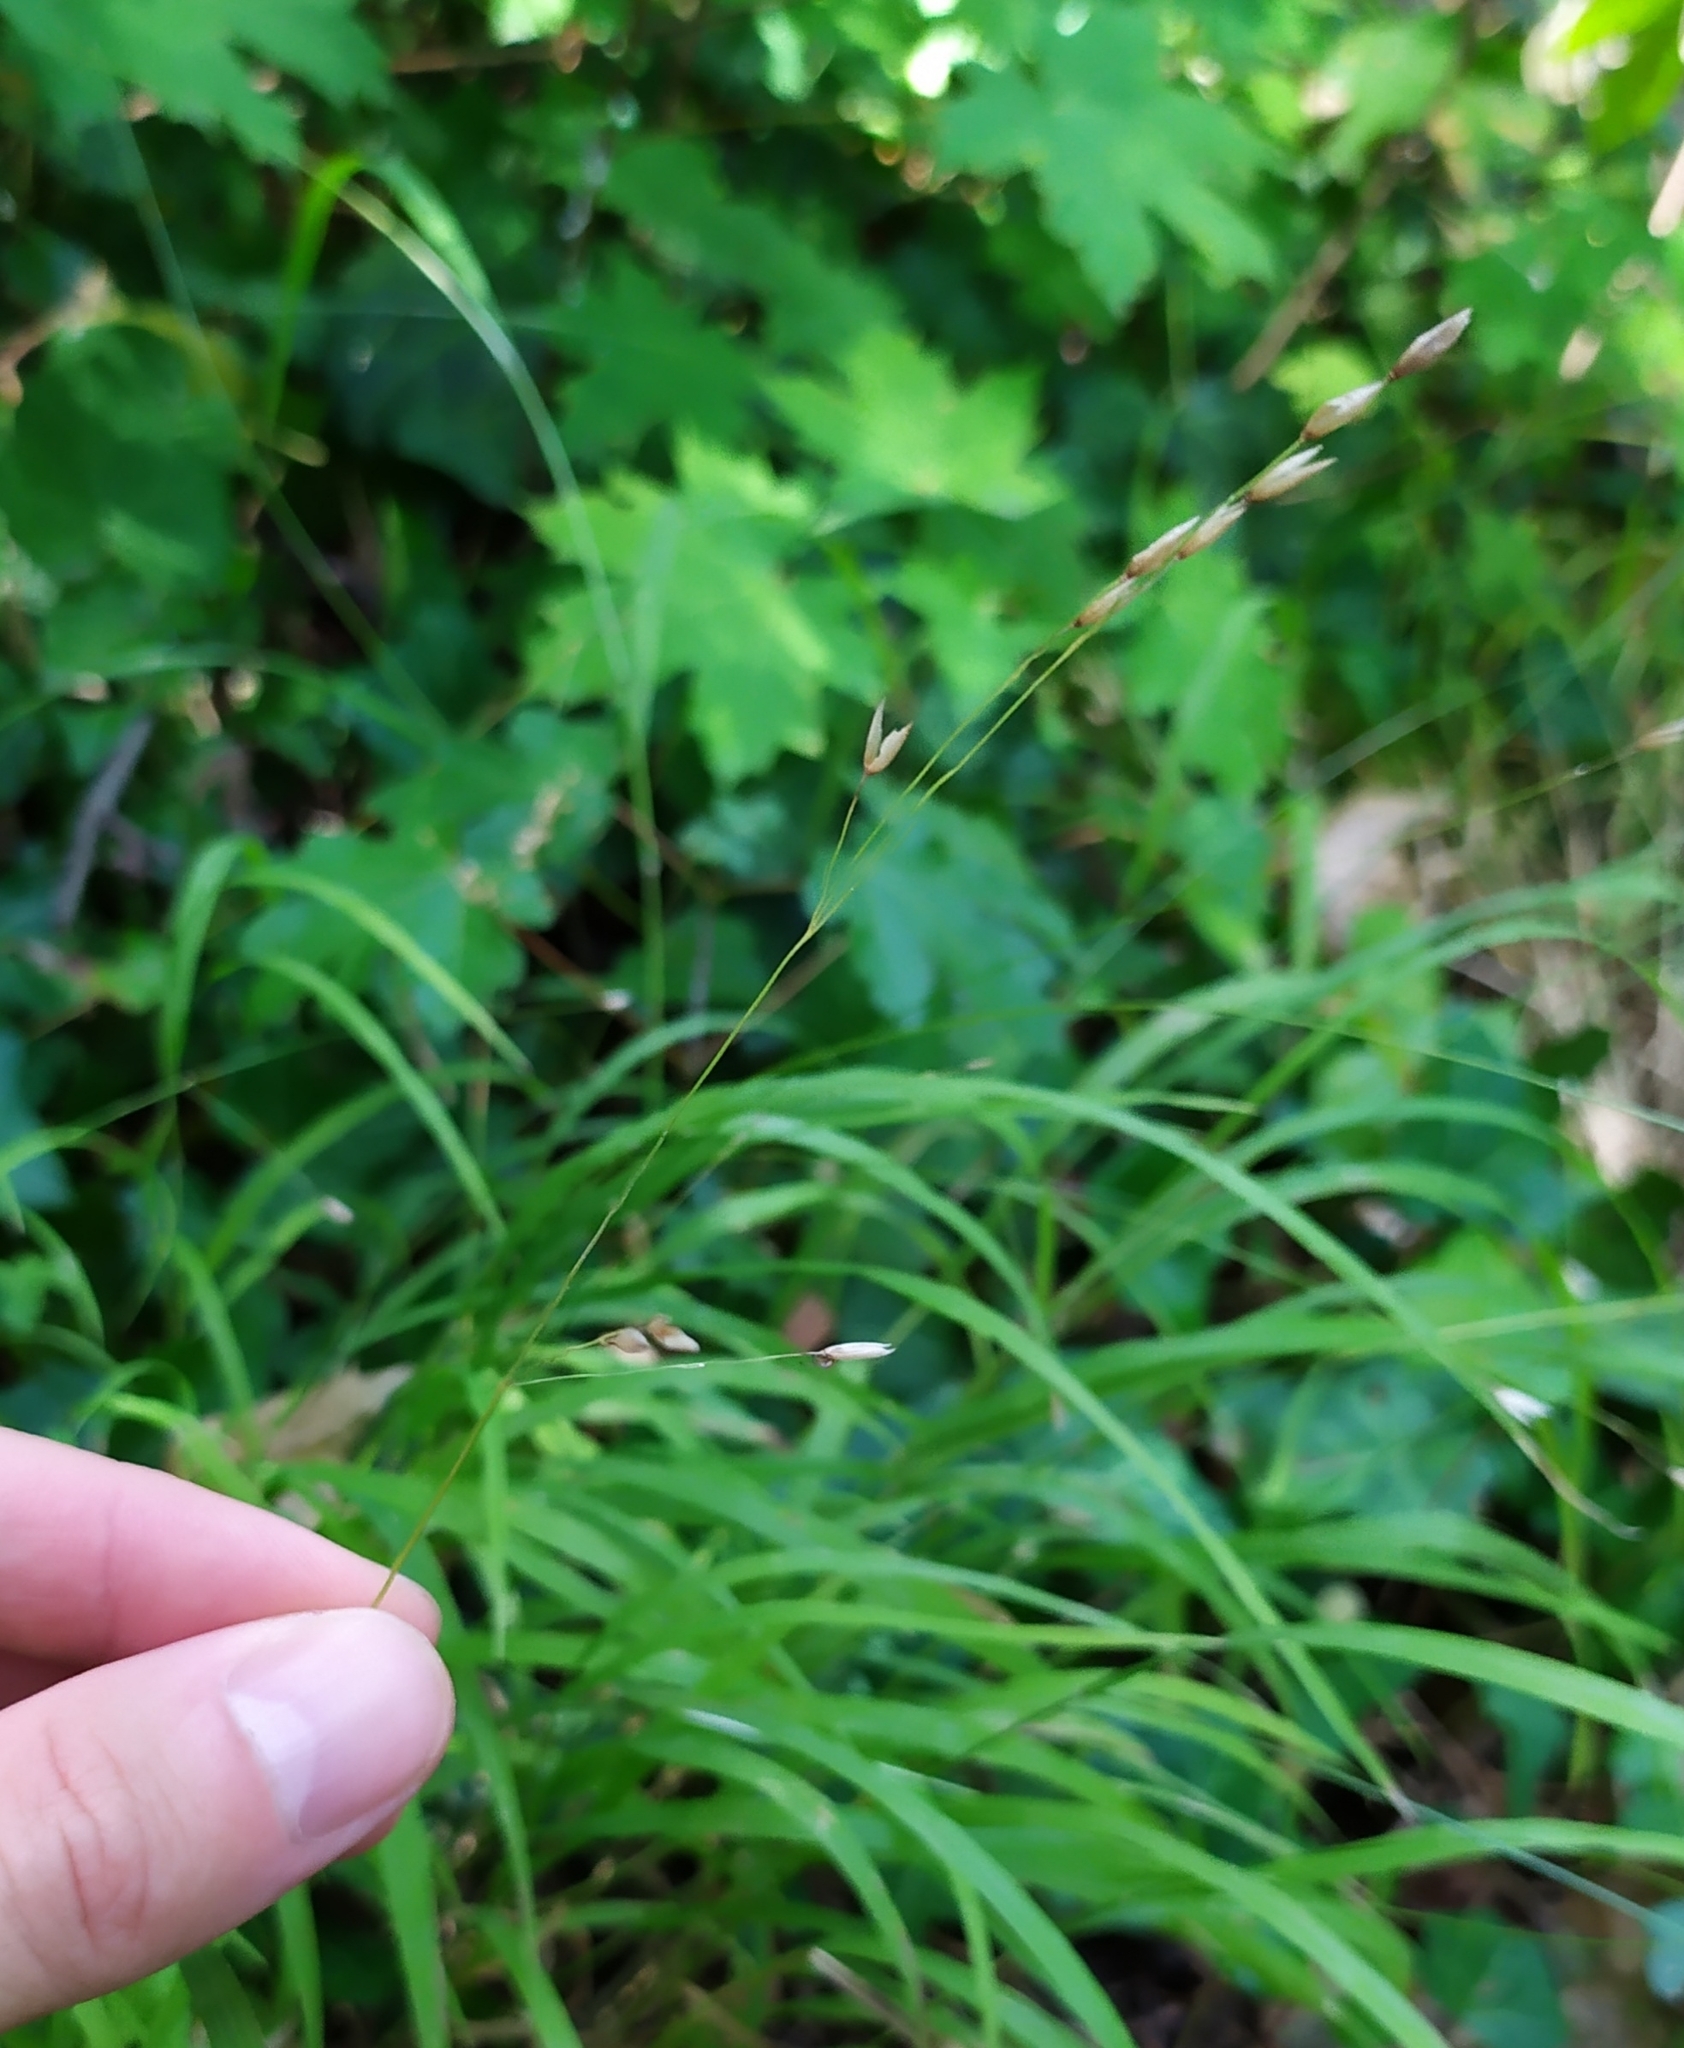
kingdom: Plantae
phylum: Tracheophyta
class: Liliopsida
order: Poales
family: Poaceae
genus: Melica
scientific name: Melica uniflora
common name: Wood melick
